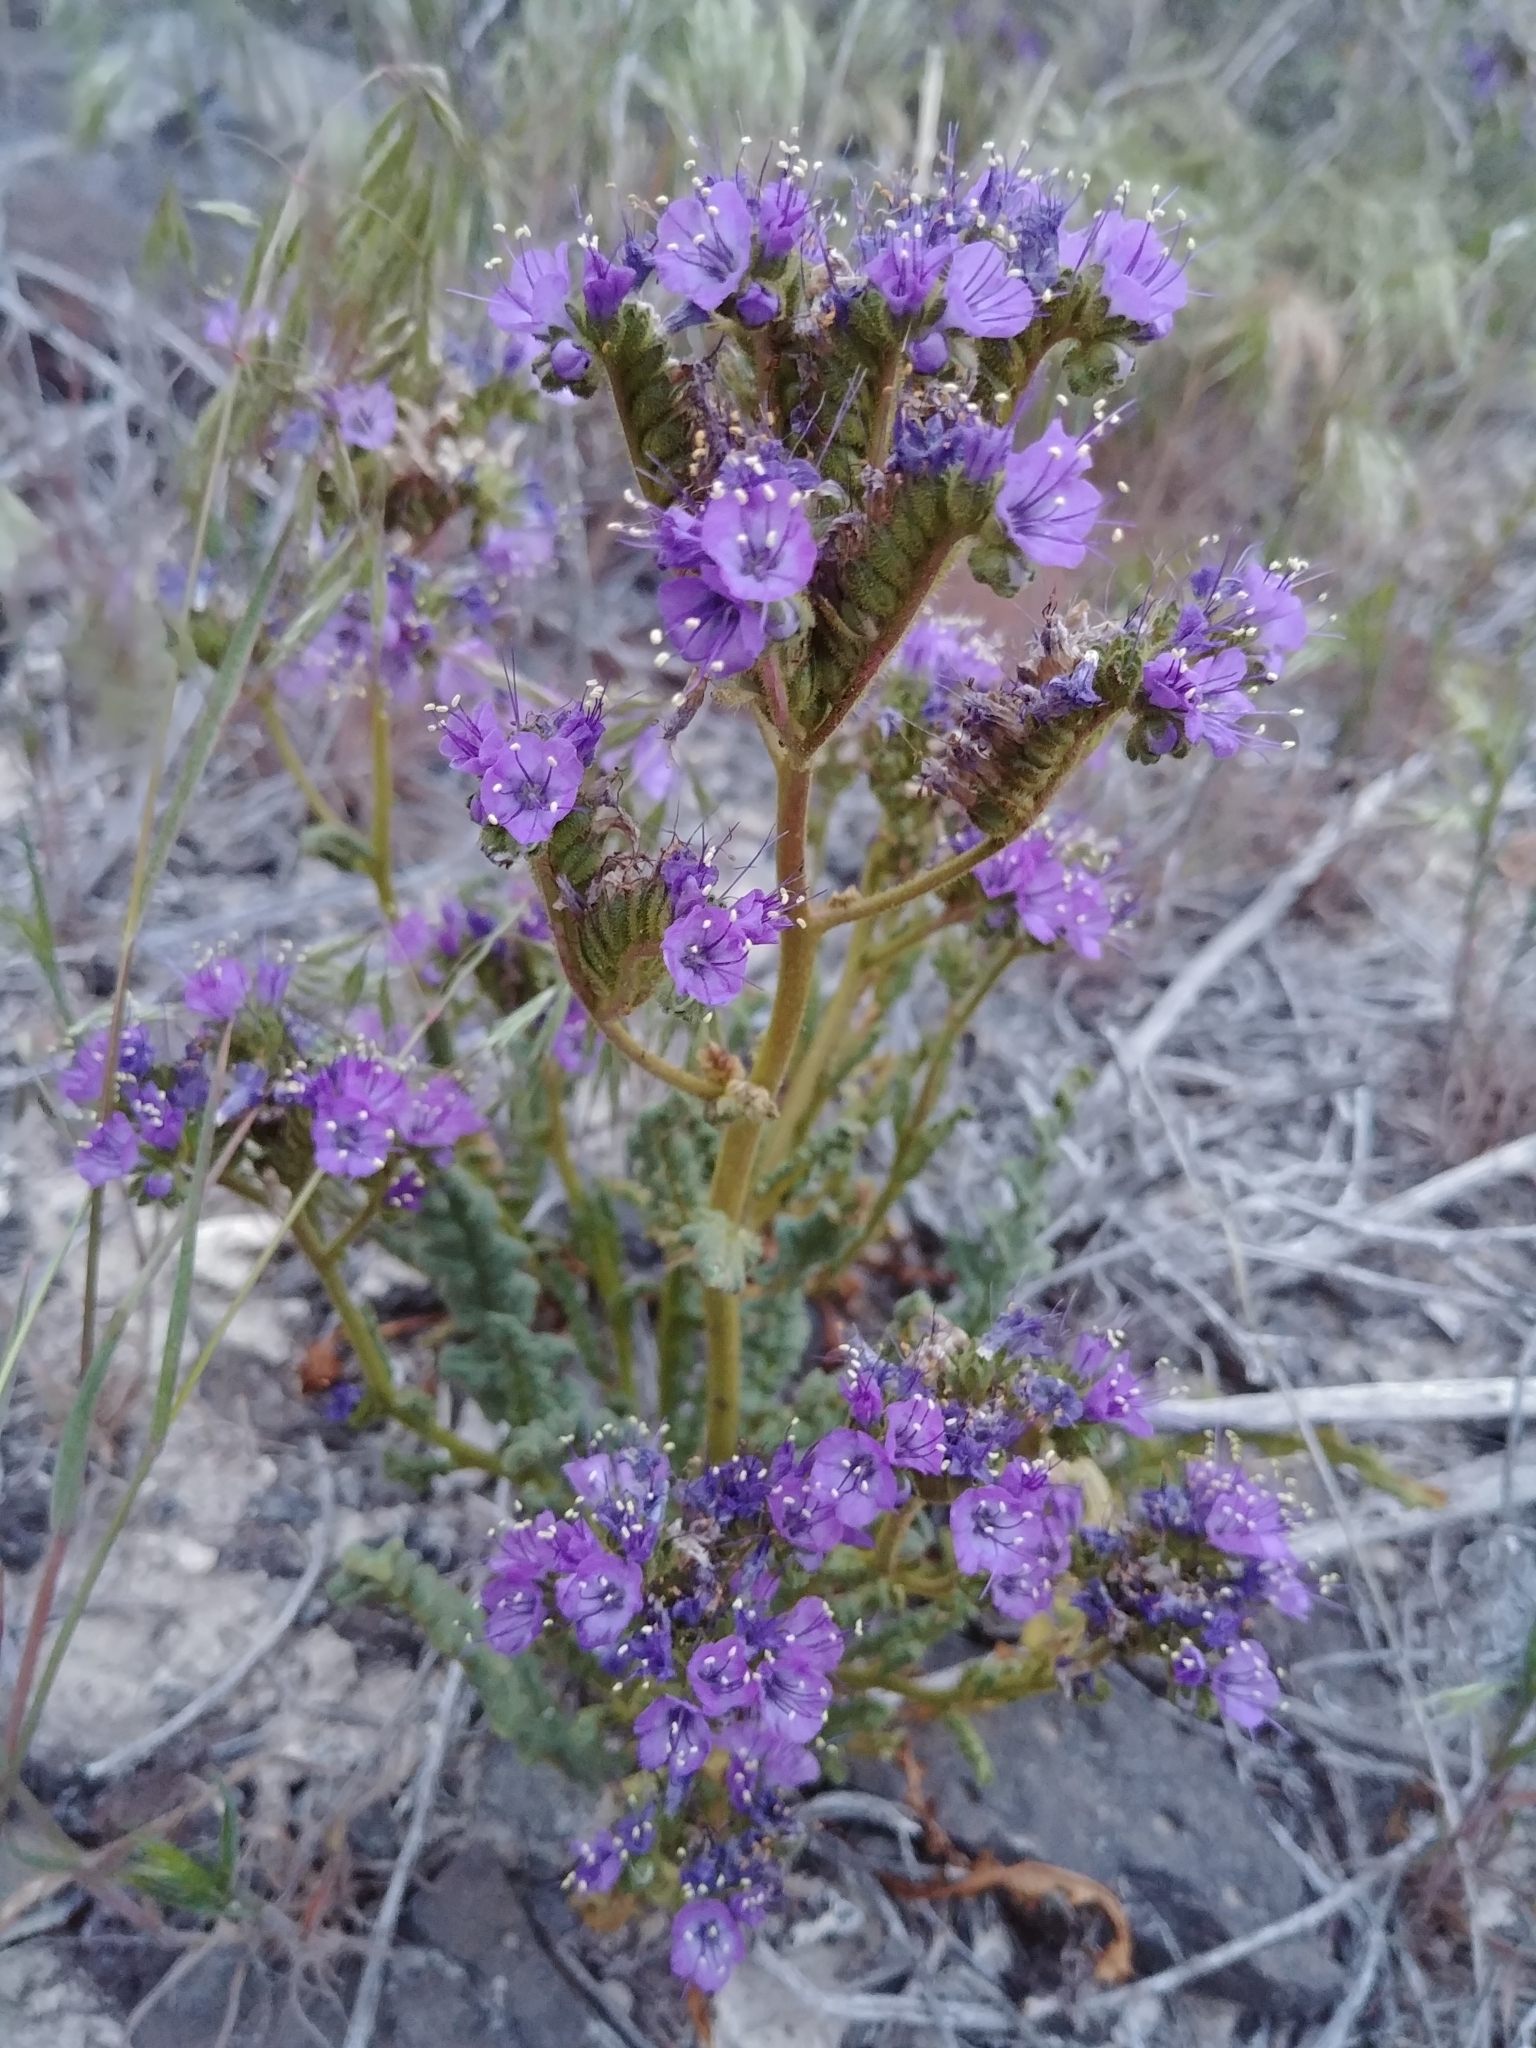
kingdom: Plantae
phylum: Tracheophyta
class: Magnoliopsida
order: Boraginales
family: Hydrophyllaceae
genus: Phacelia
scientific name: Phacelia crenulata
